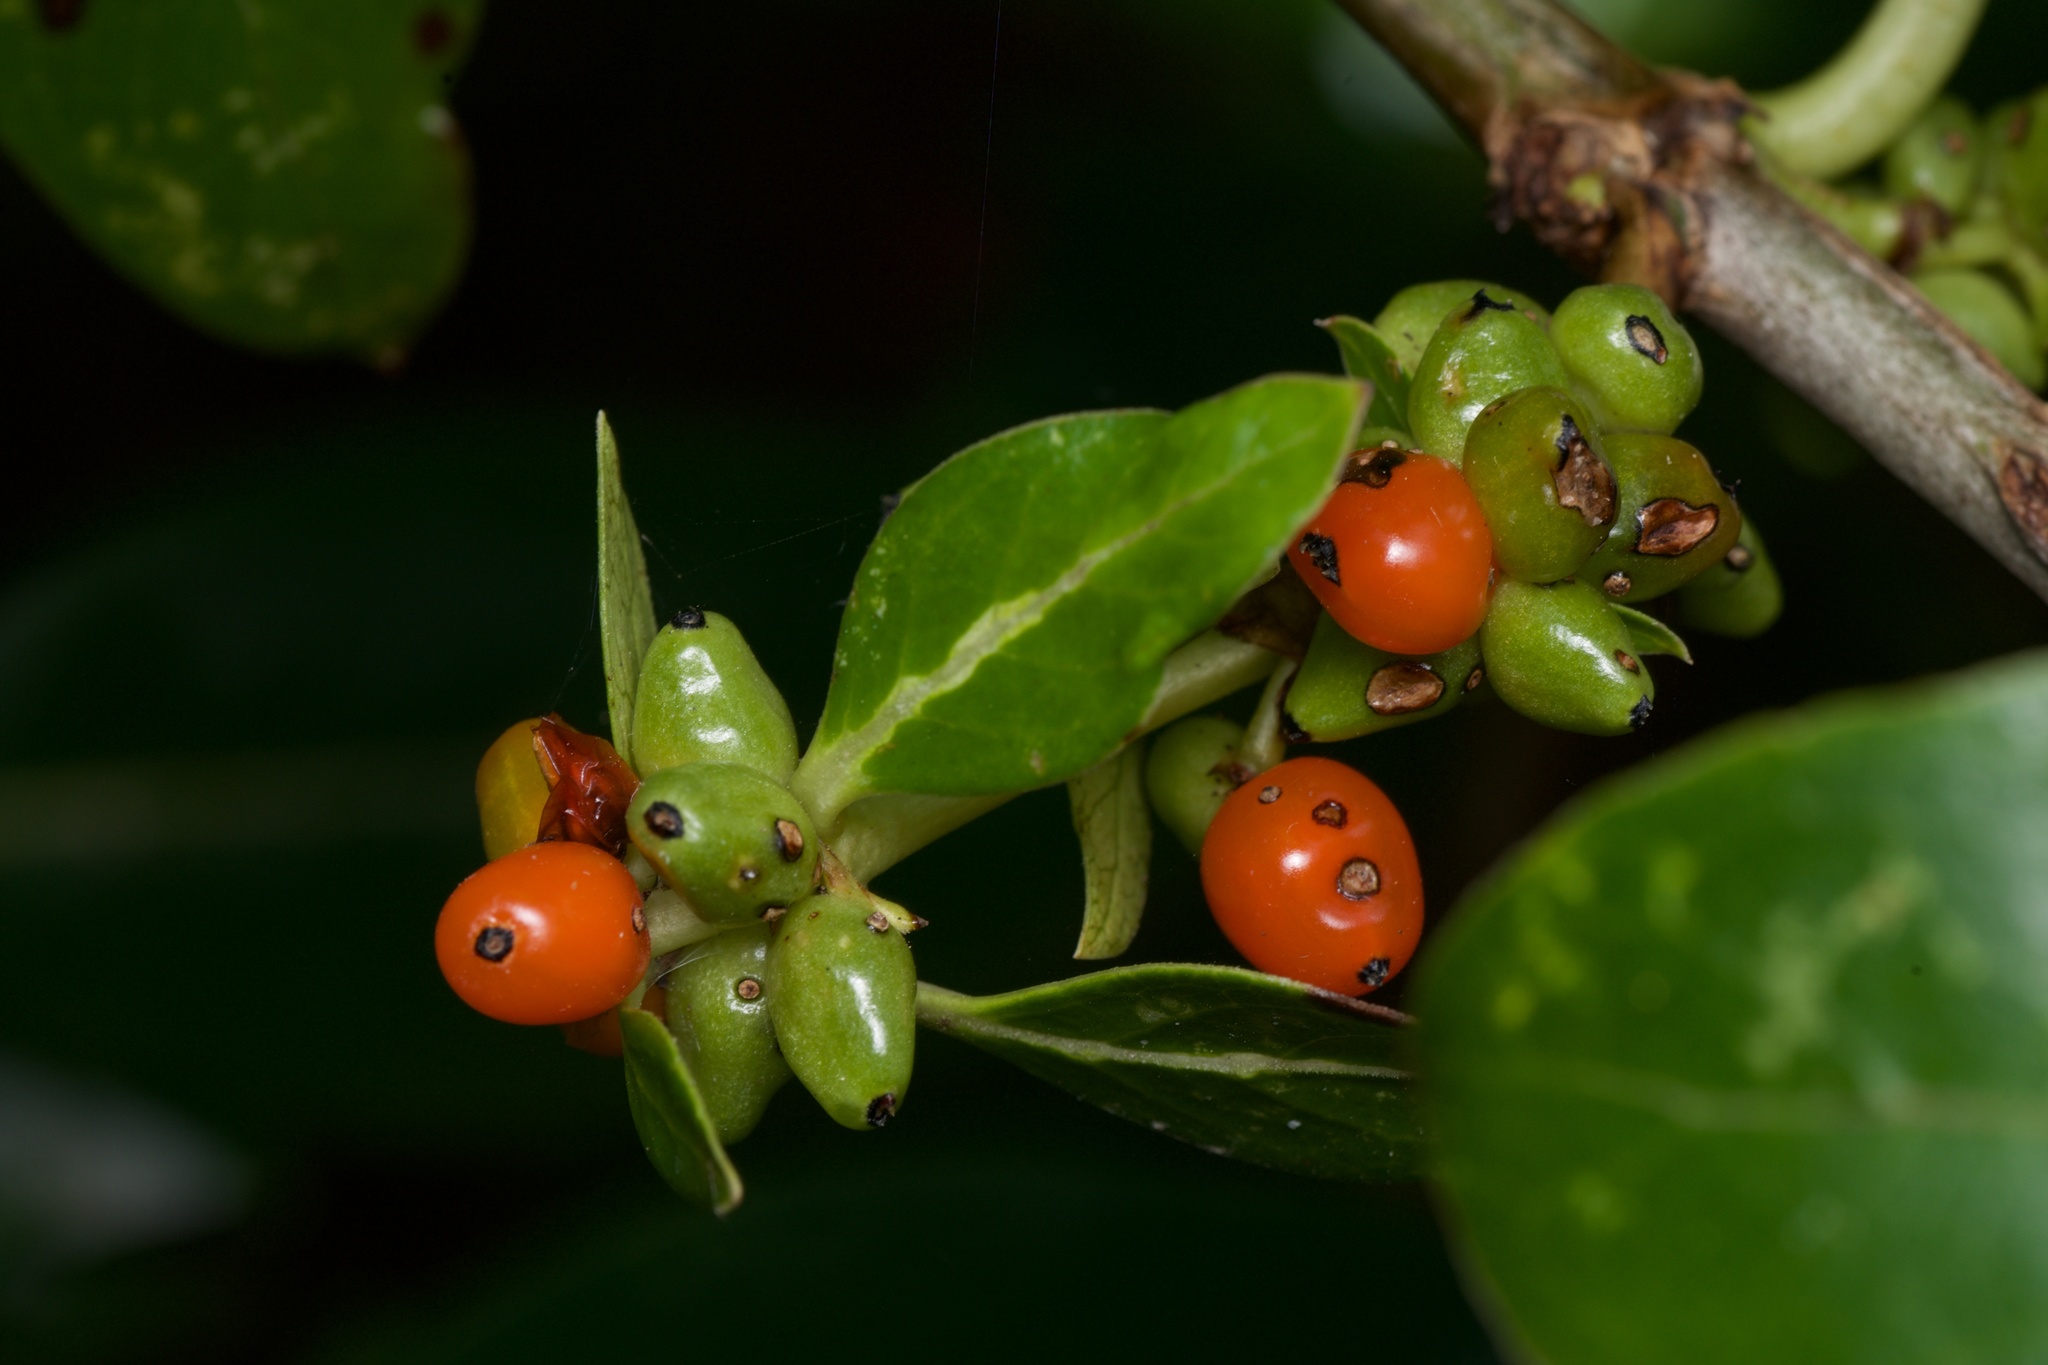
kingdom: Plantae
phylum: Tracheophyta
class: Magnoliopsida
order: Gentianales
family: Rubiaceae
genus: Coprosma
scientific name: Coprosma robusta
